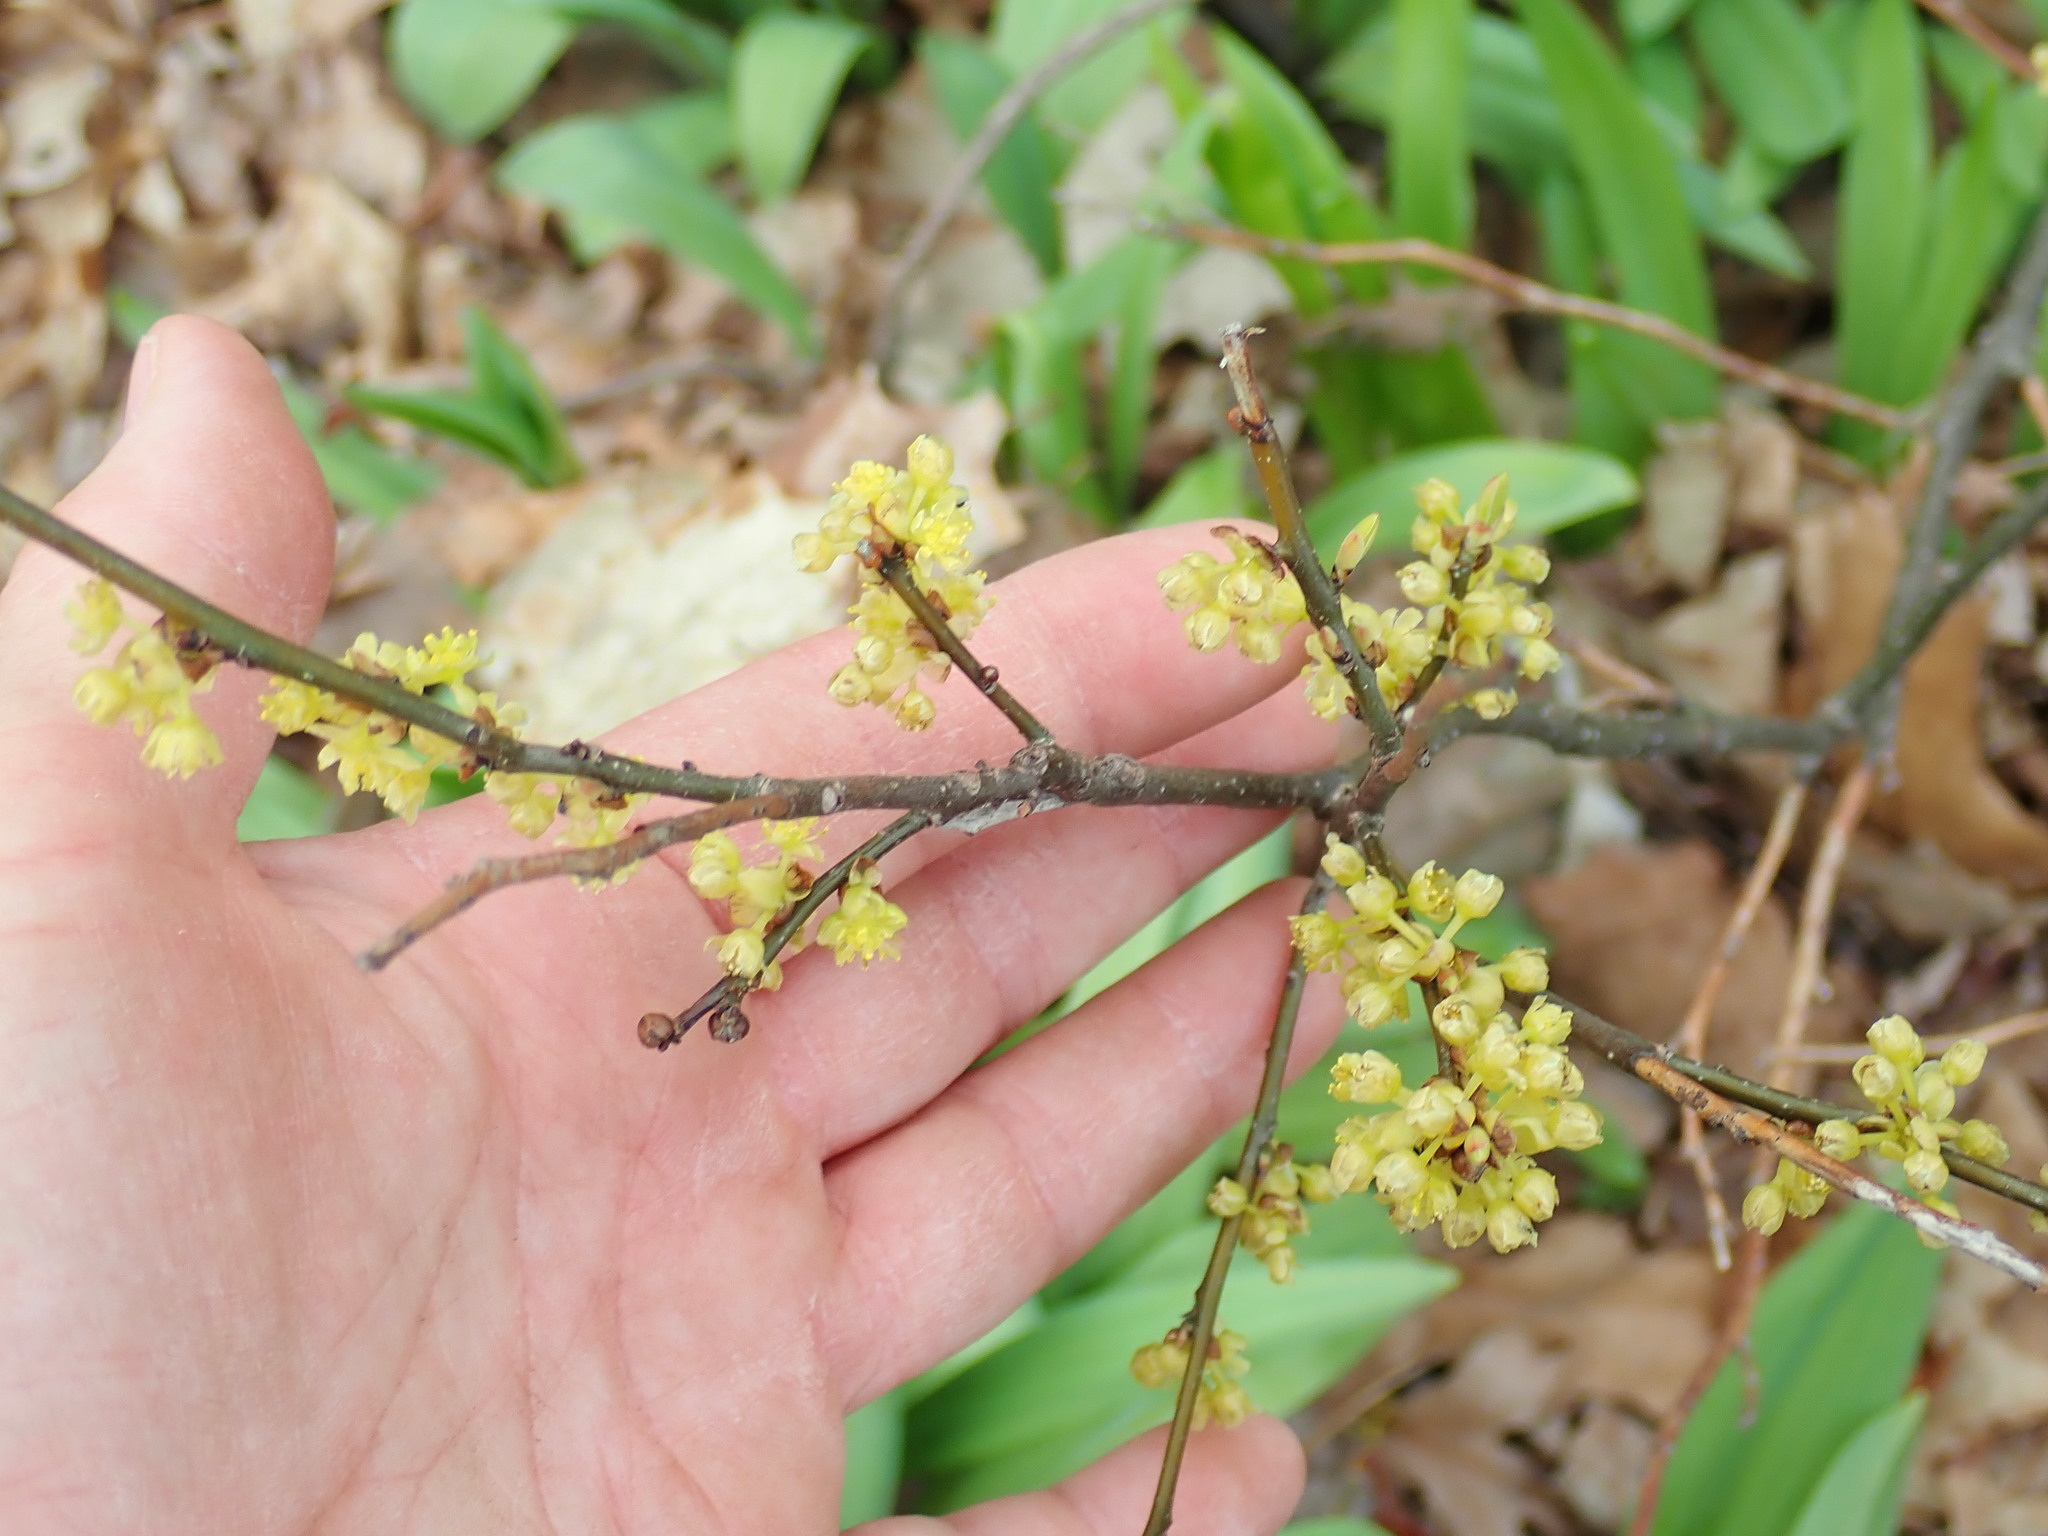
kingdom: Plantae
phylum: Tracheophyta
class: Magnoliopsida
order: Laurales
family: Lauraceae
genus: Lindera
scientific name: Lindera benzoin
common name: Spicebush
